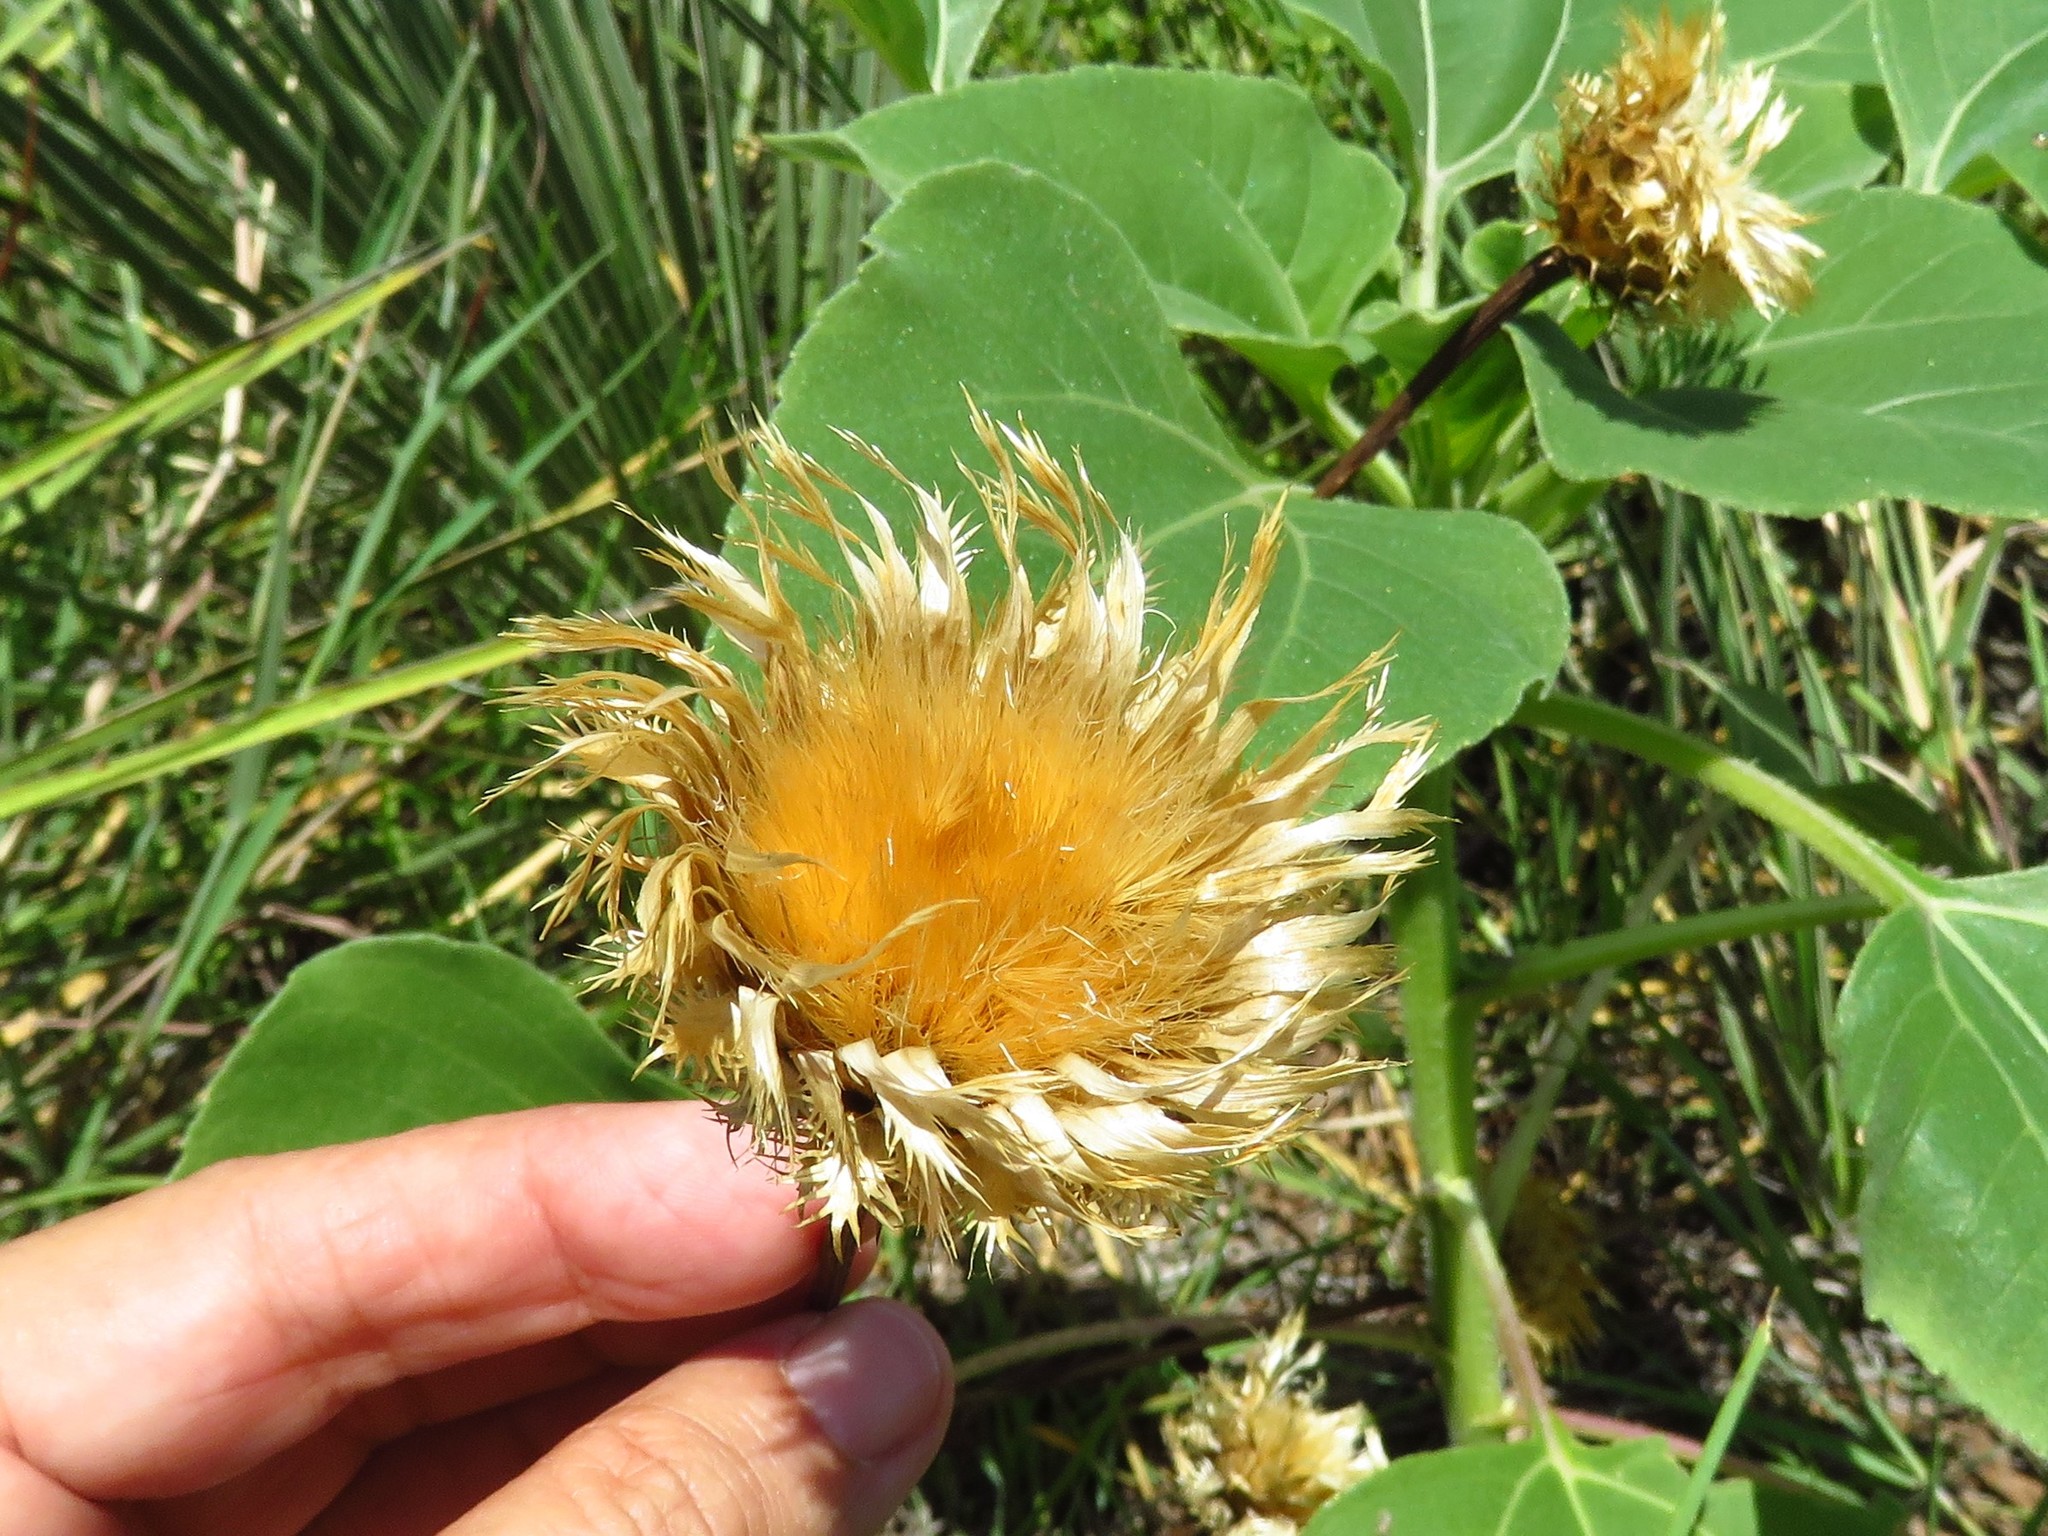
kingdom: Plantae
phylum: Tracheophyta
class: Magnoliopsida
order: Asterales
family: Asteraceae
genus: Plectocephalus
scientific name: Plectocephalus americanus
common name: American basket-flower
